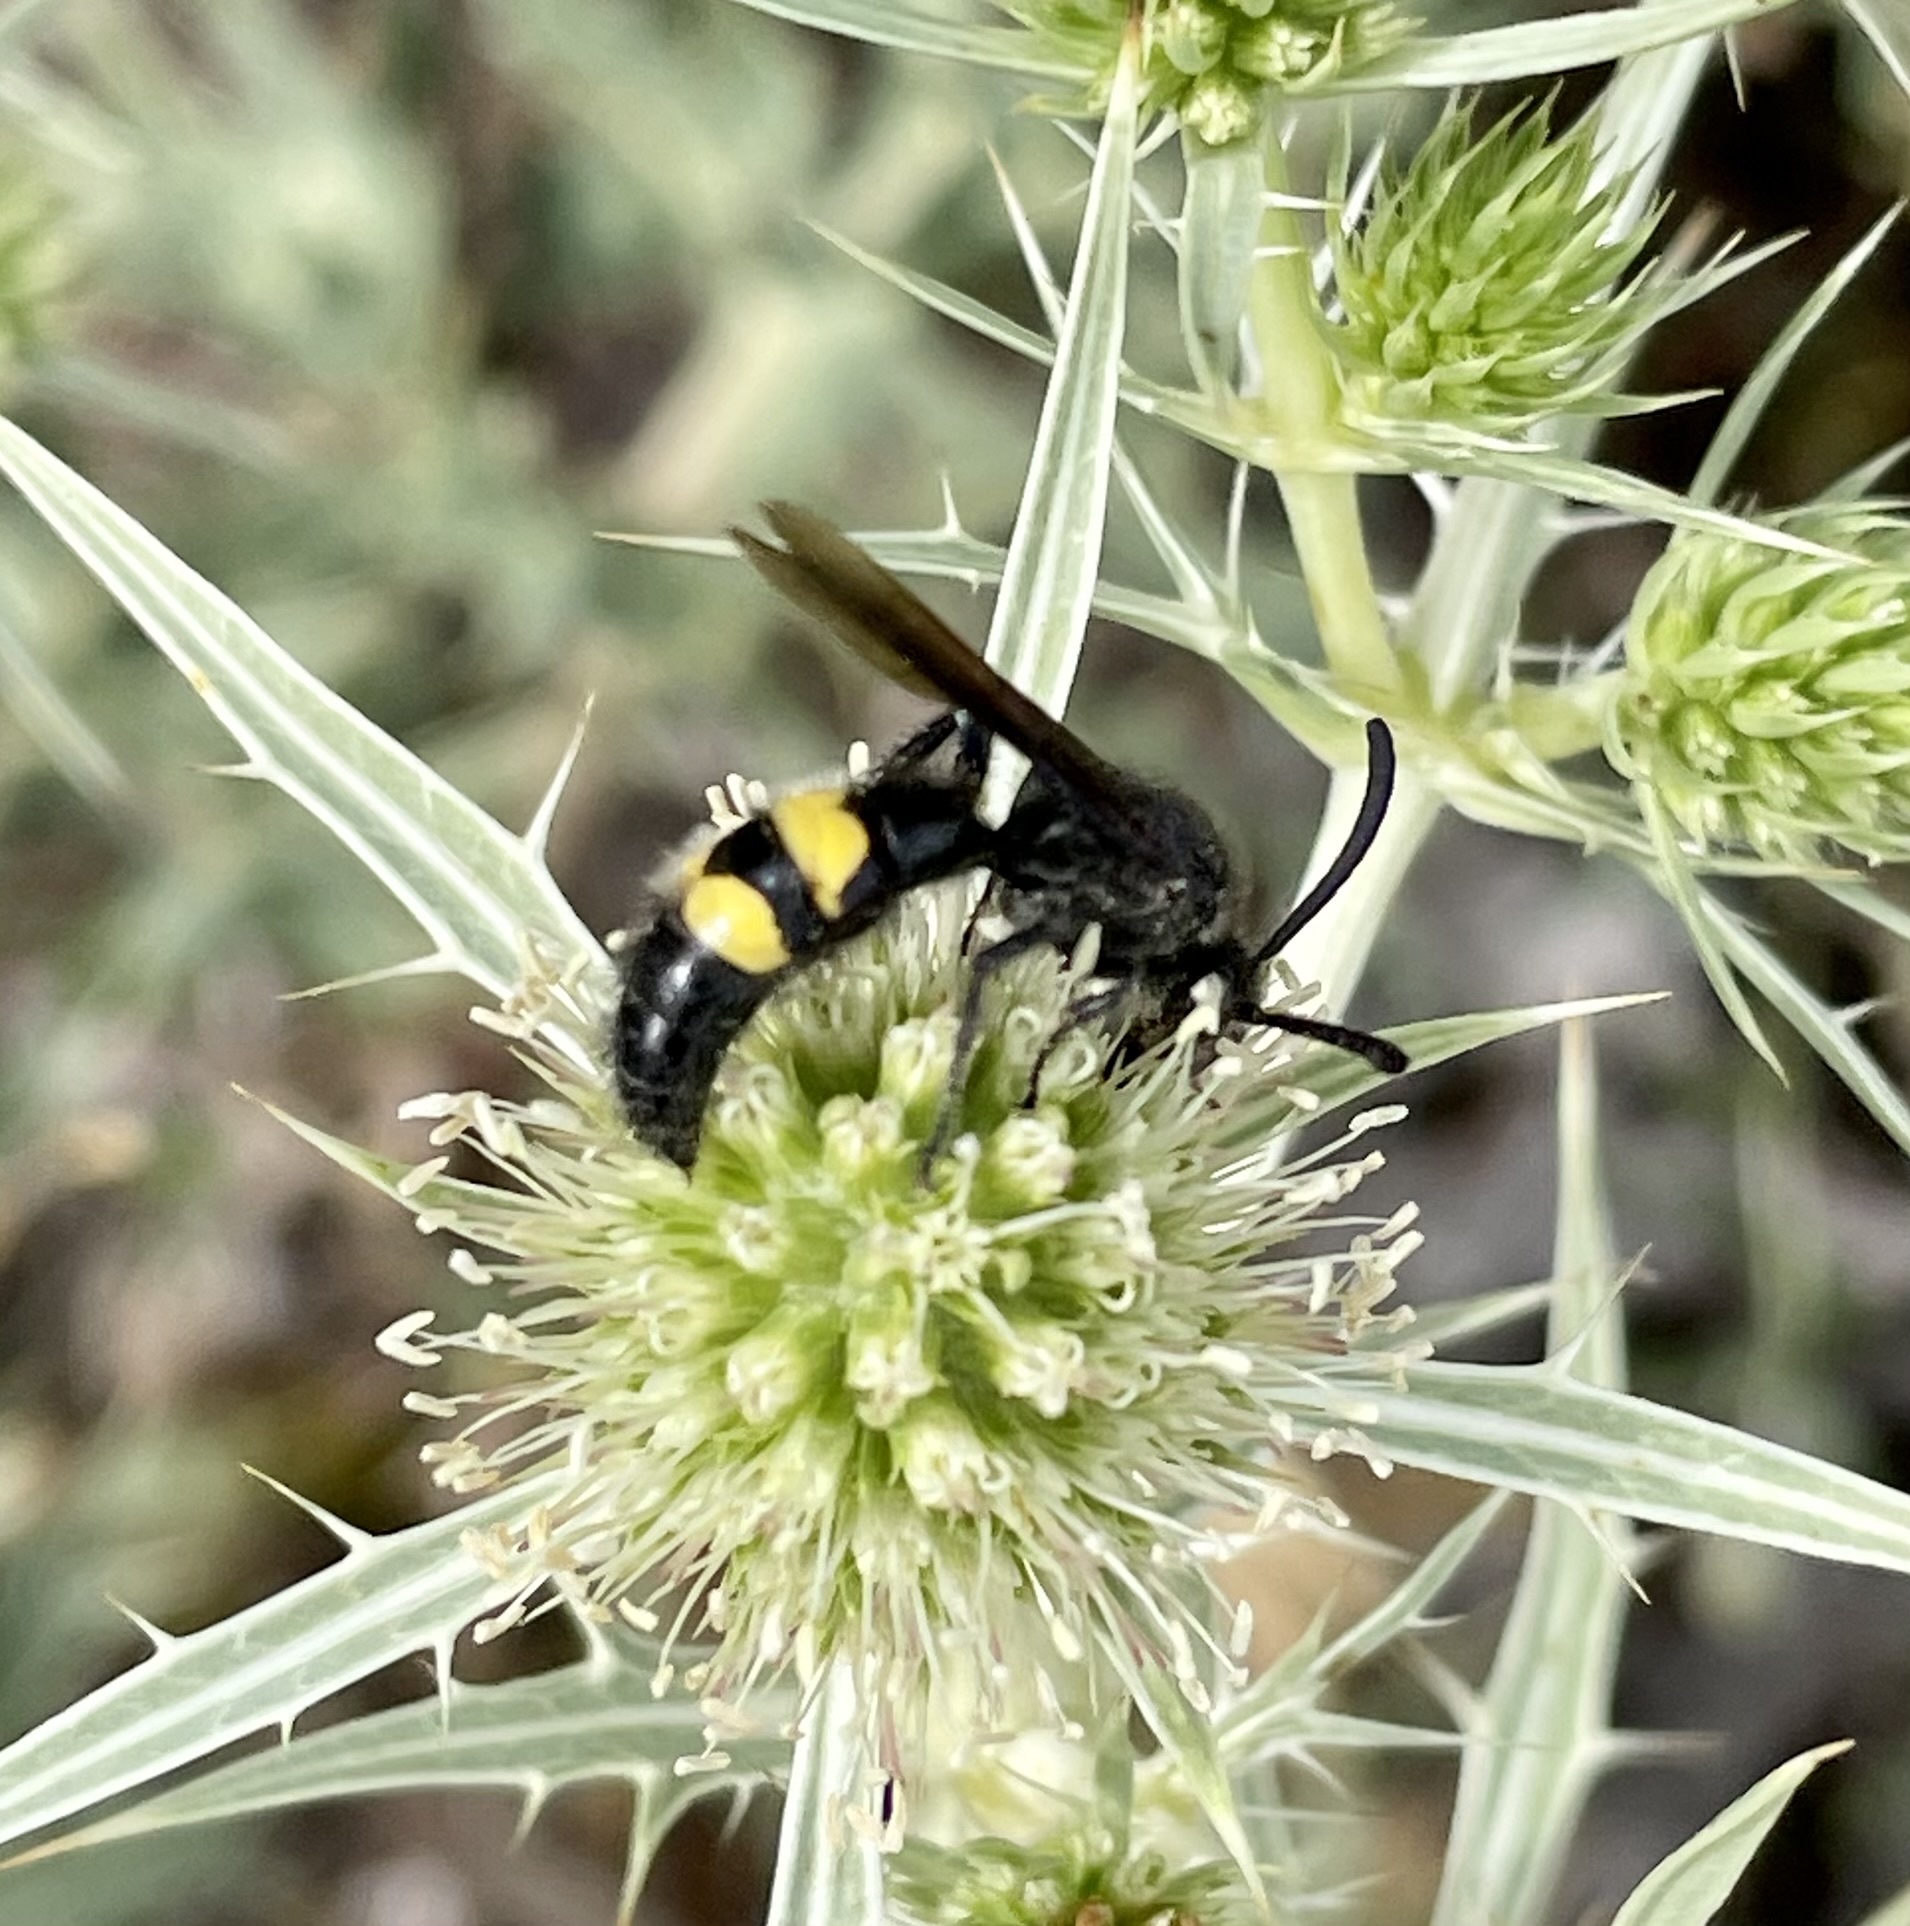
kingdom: Animalia
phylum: Arthropoda
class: Insecta
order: Hymenoptera
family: Scoliidae
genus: Scolia
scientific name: Scolia hirta
